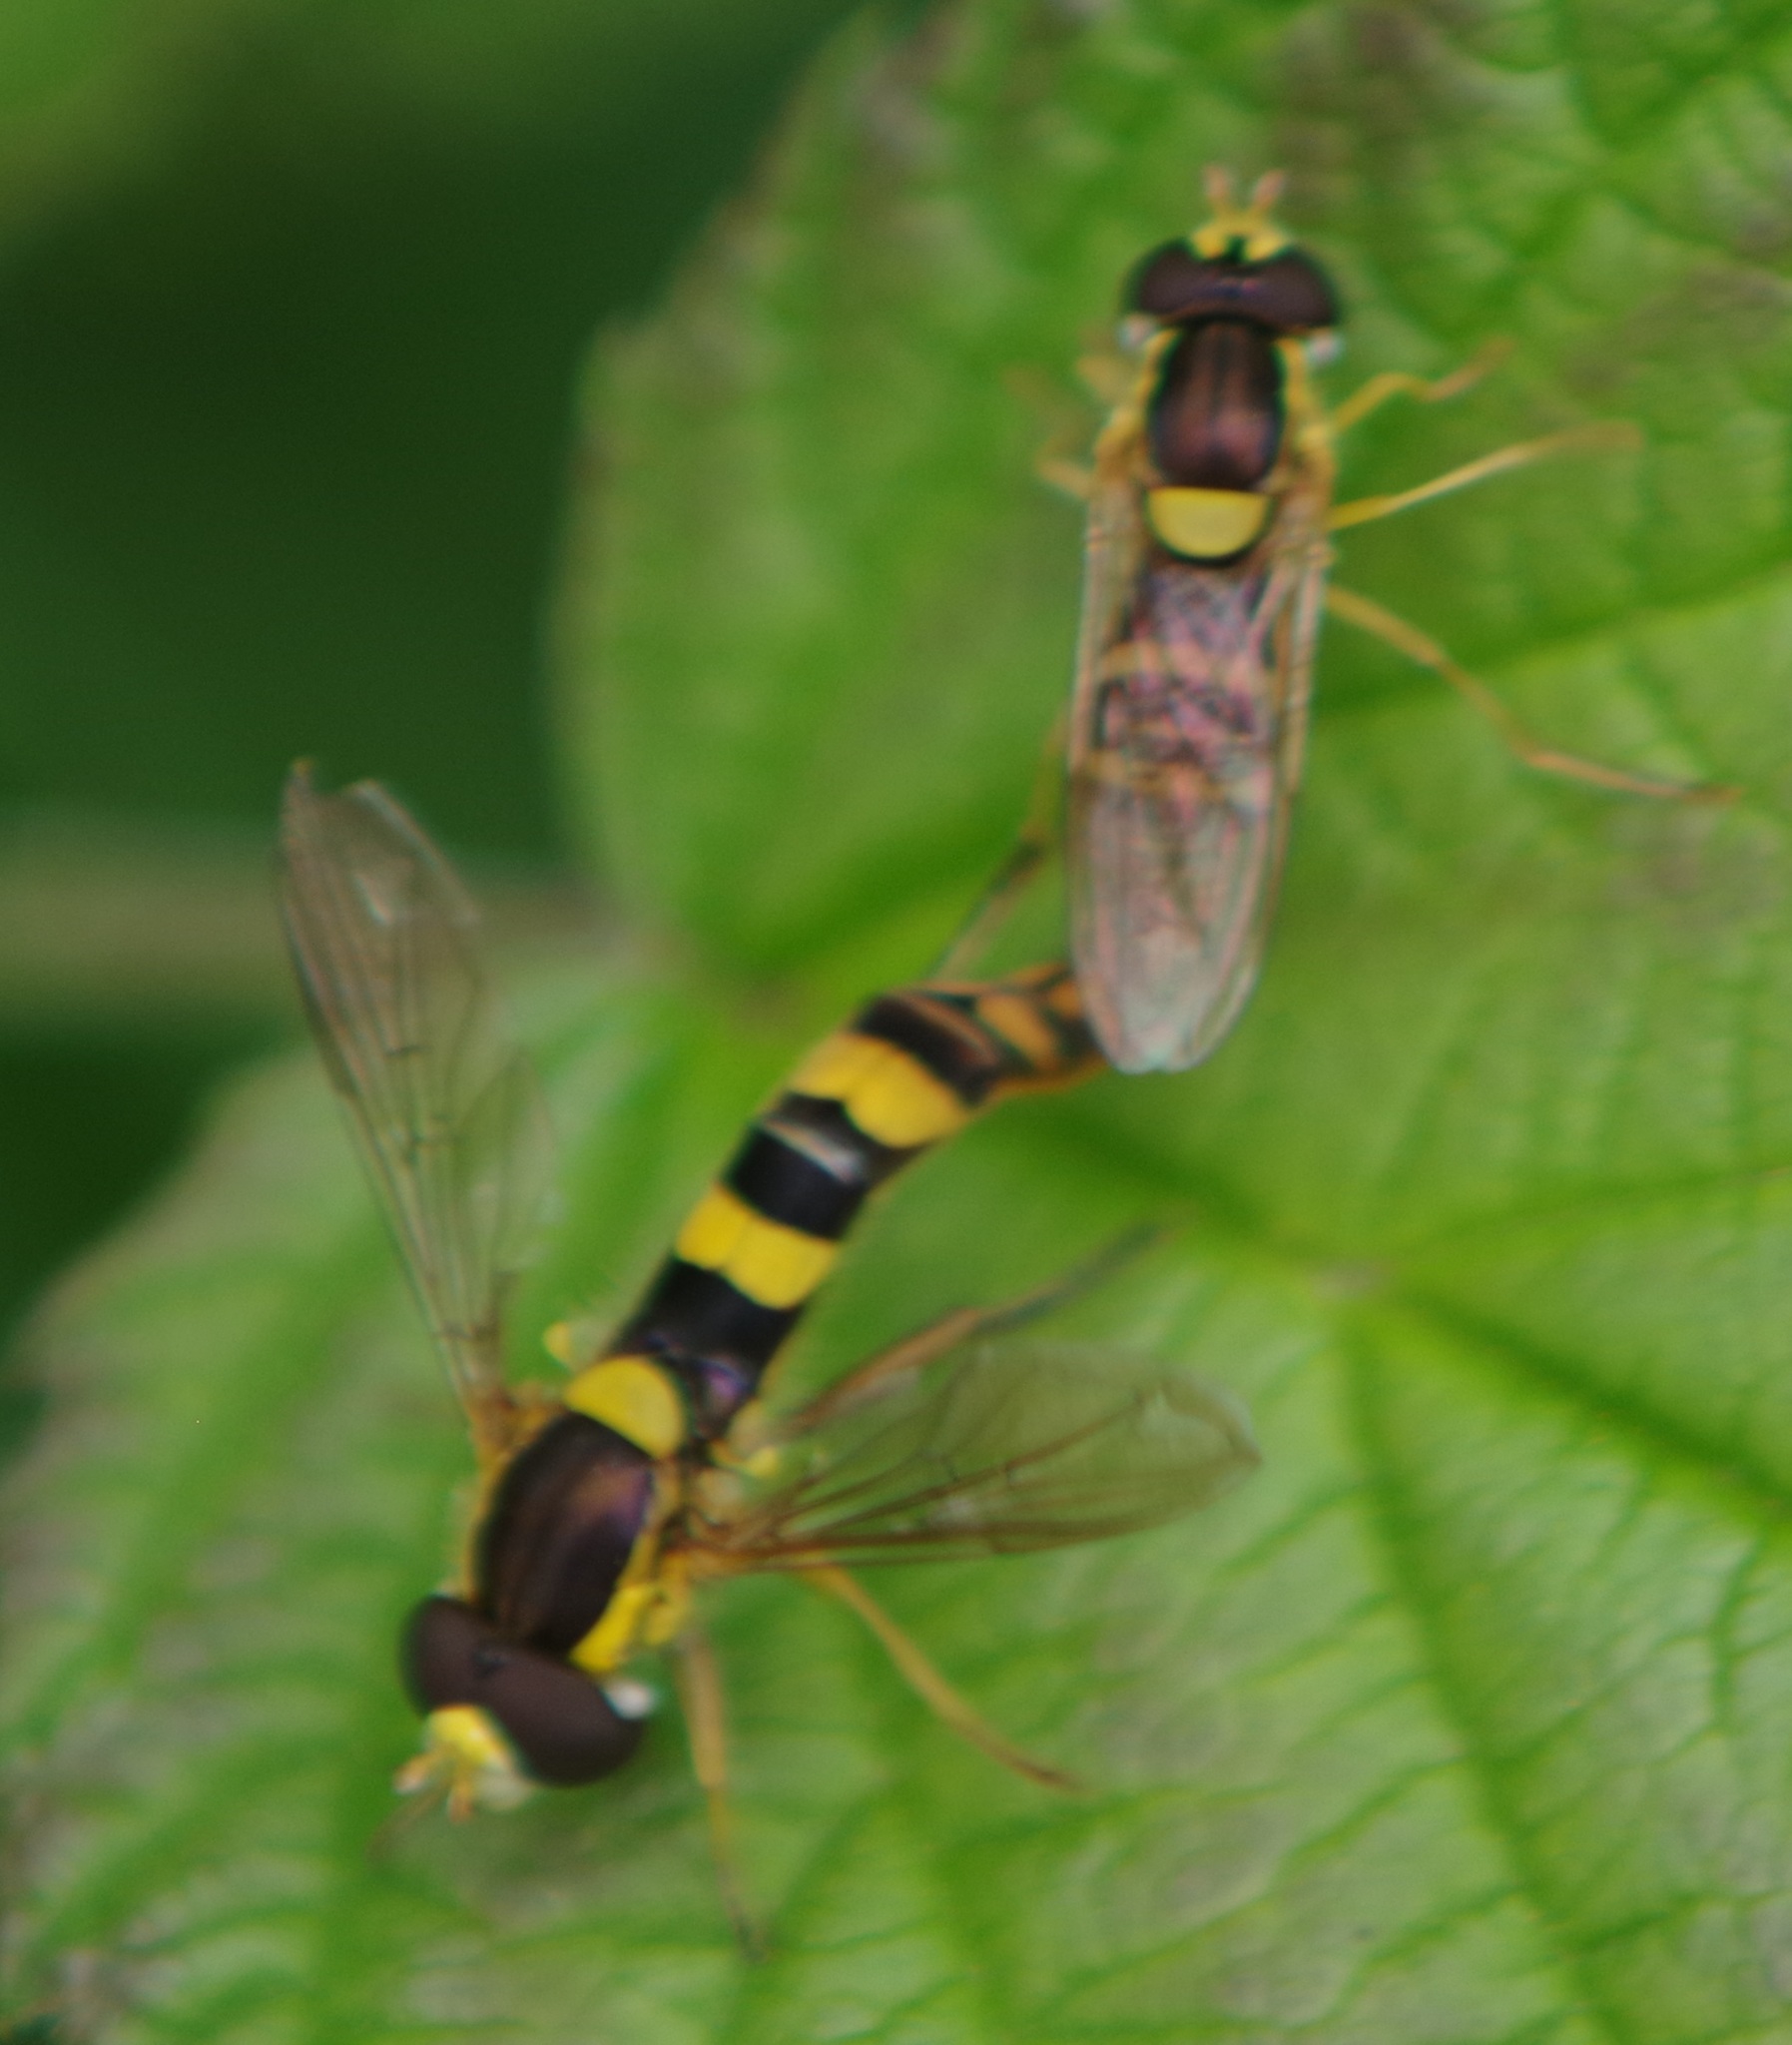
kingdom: Animalia
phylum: Arthropoda
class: Insecta
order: Diptera
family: Syrphidae
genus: Sphaerophoria
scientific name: Sphaerophoria scripta
